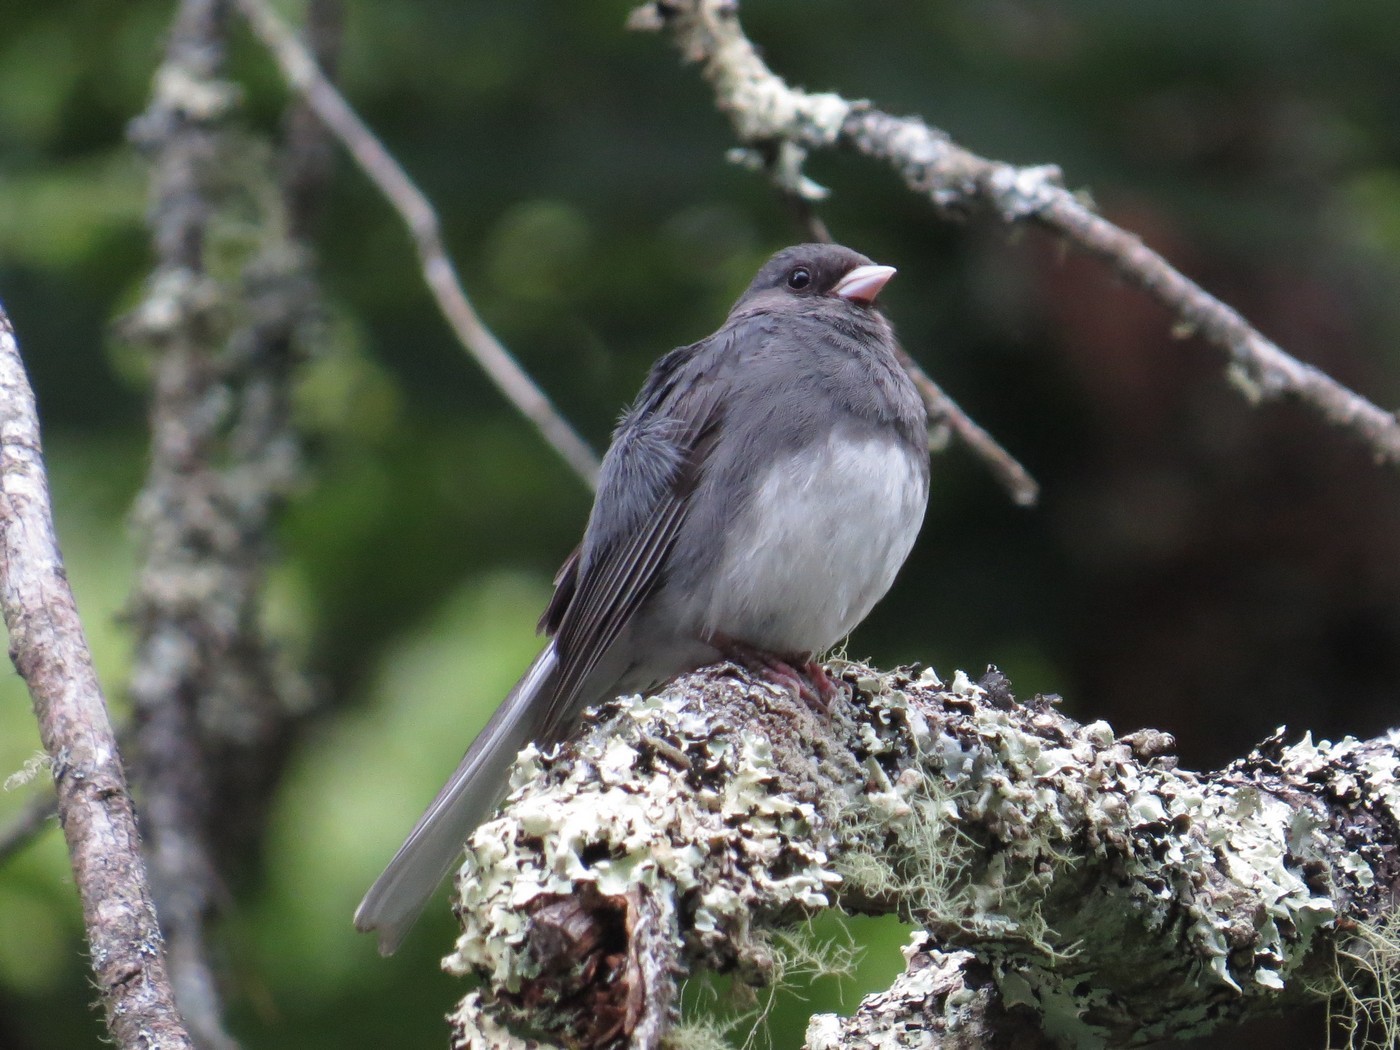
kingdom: Animalia
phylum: Chordata
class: Aves
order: Passeriformes
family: Passerellidae
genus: Junco
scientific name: Junco hyemalis
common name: Dark-eyed junco
